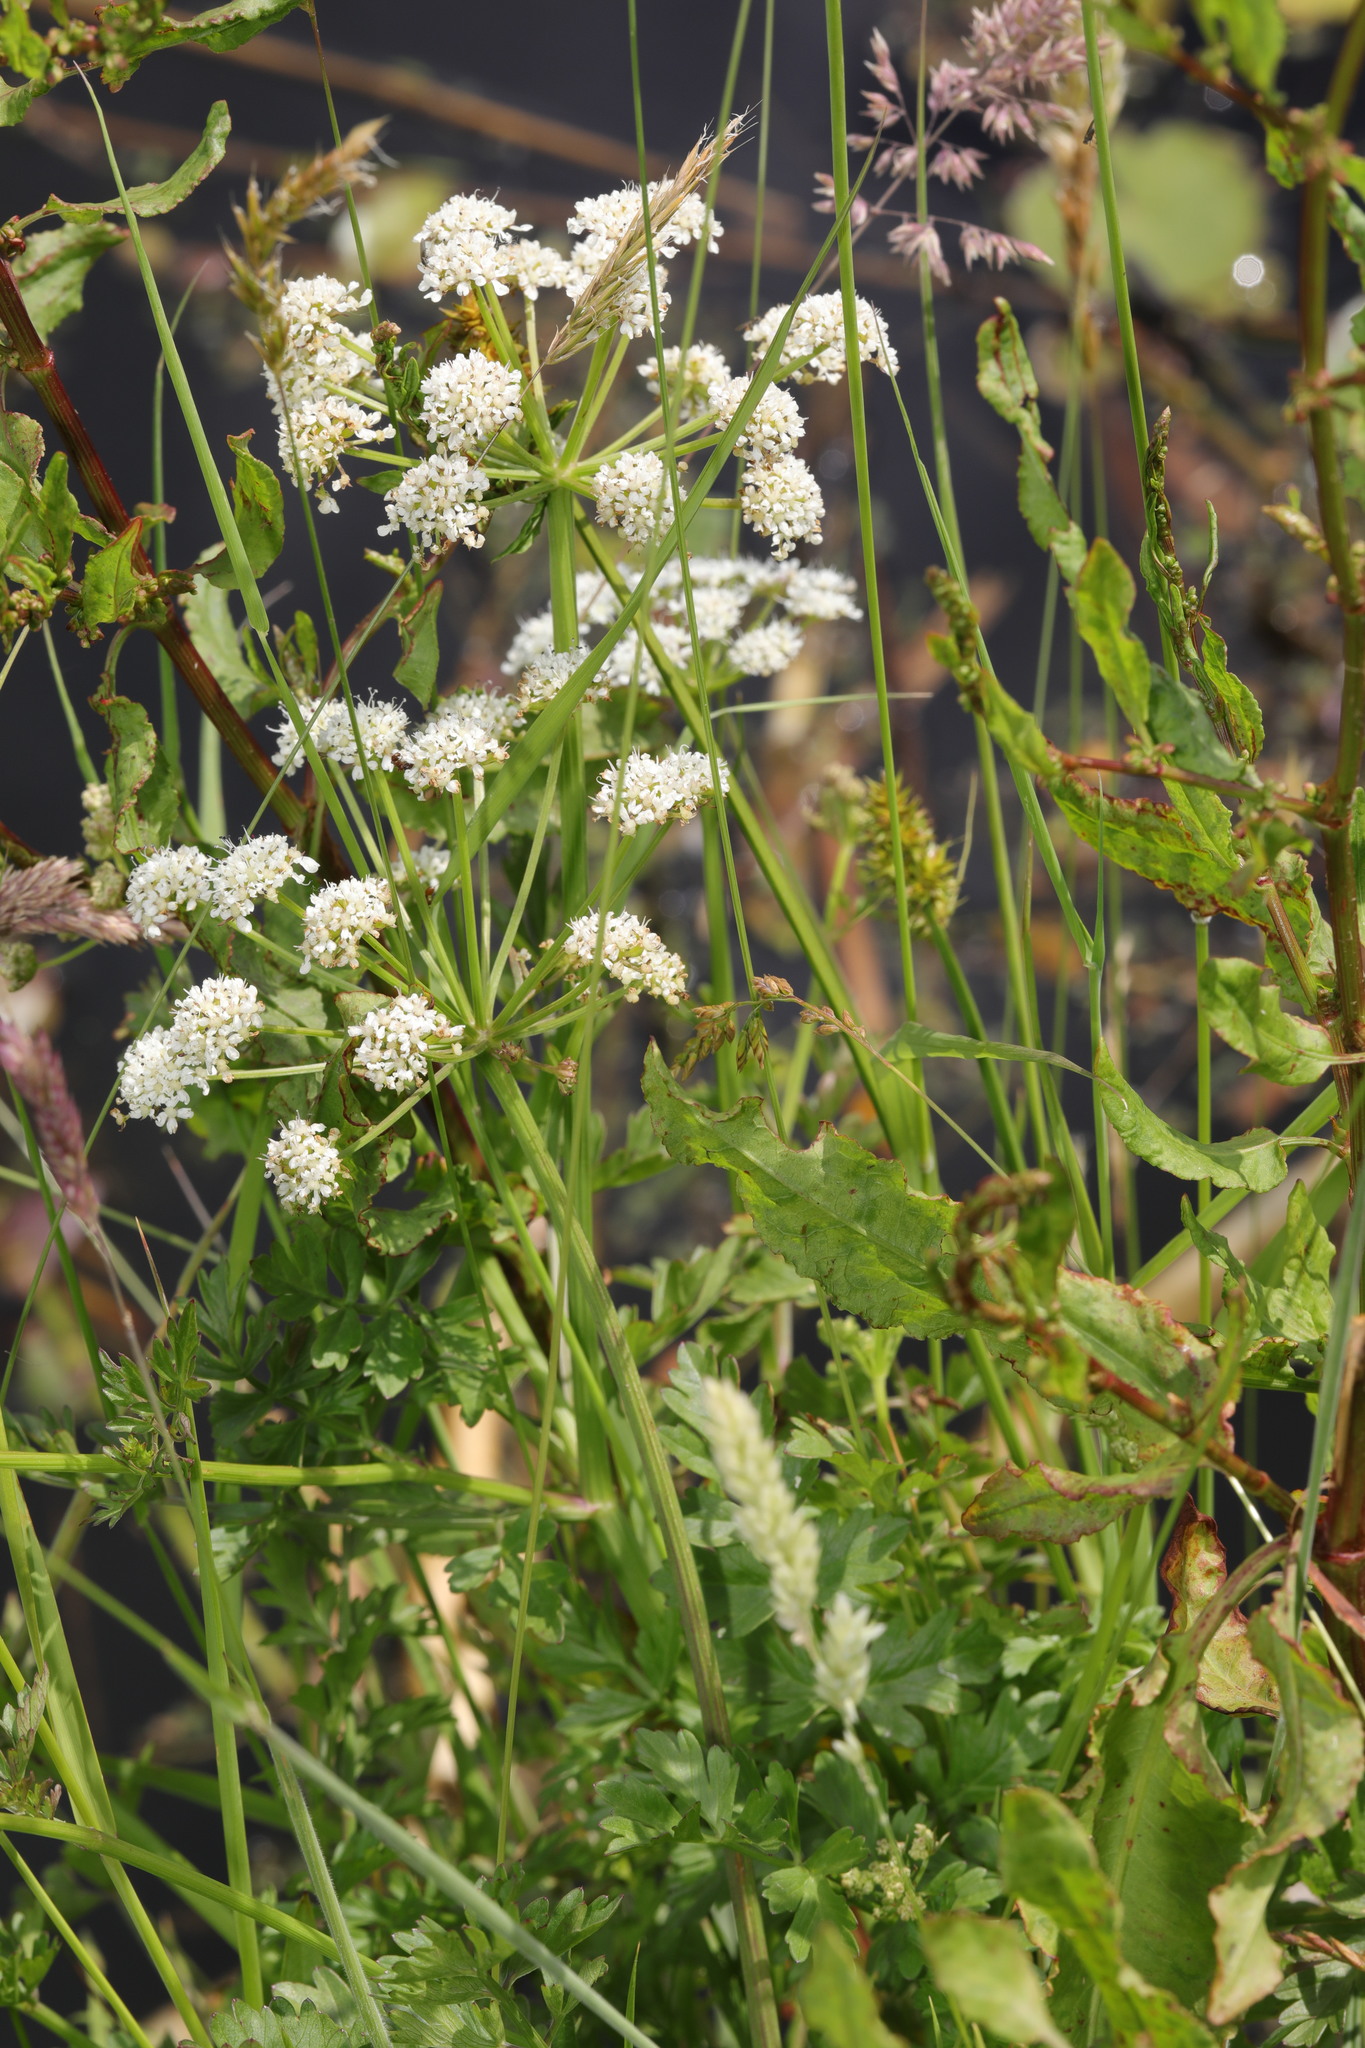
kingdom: Plantae
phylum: Tracheophyta
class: Magnoliopsida
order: Apiales
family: Apiaceae
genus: Oenanthe
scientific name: Oenanthe crocata
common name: Hemlock water-dropwort
